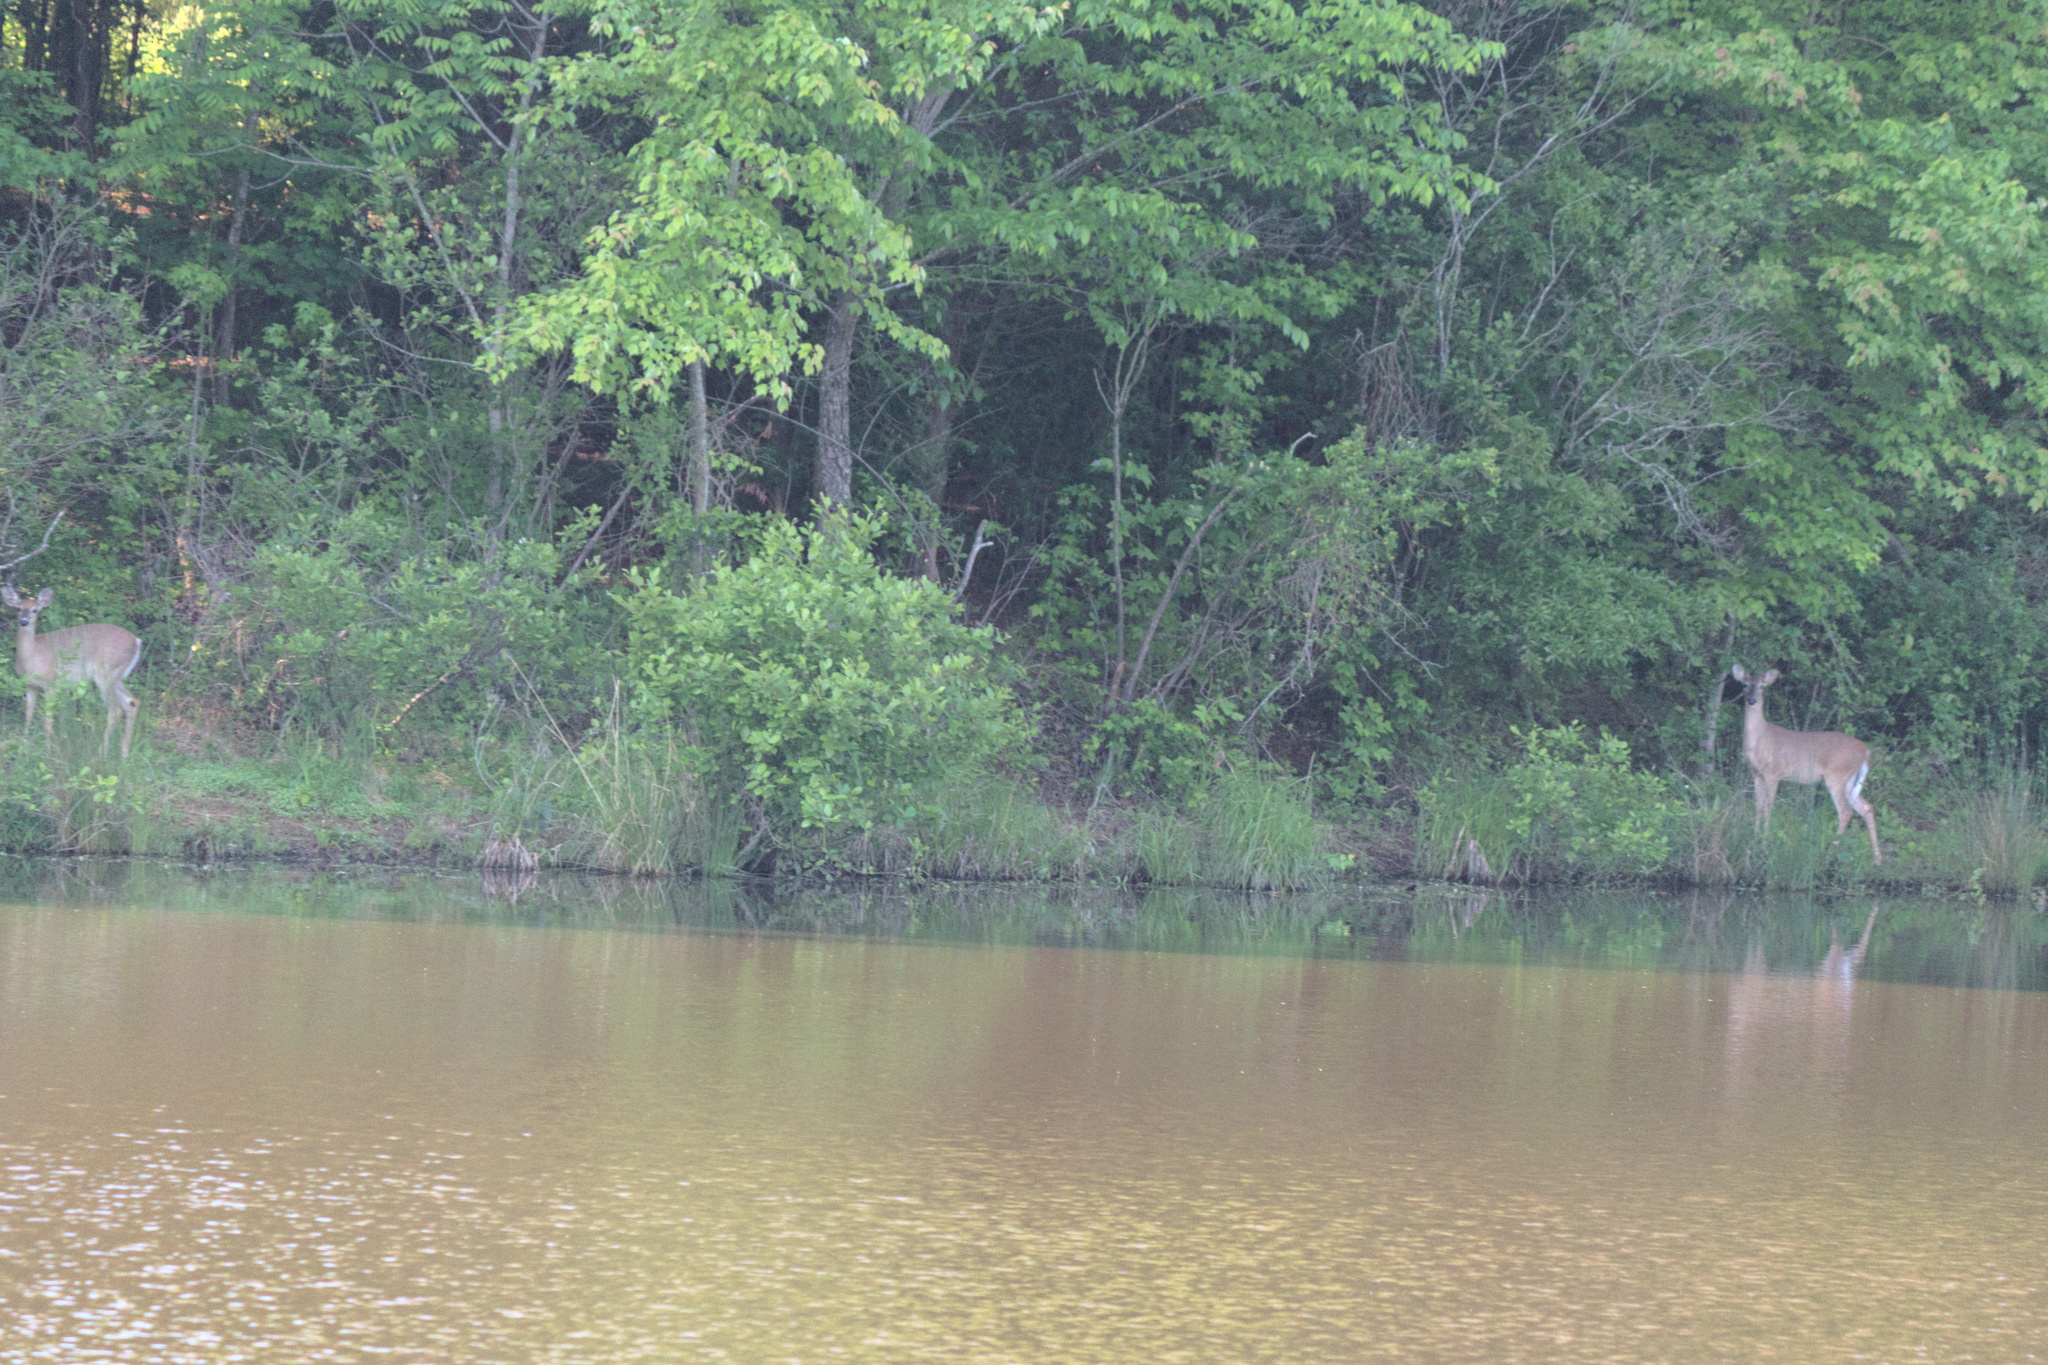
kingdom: Animalia
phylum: Chordata
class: Mammalia
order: Artiodactyla
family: Cervidae
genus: Odocoileus
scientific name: Odocoileus virginianus
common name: White-tailed deer
